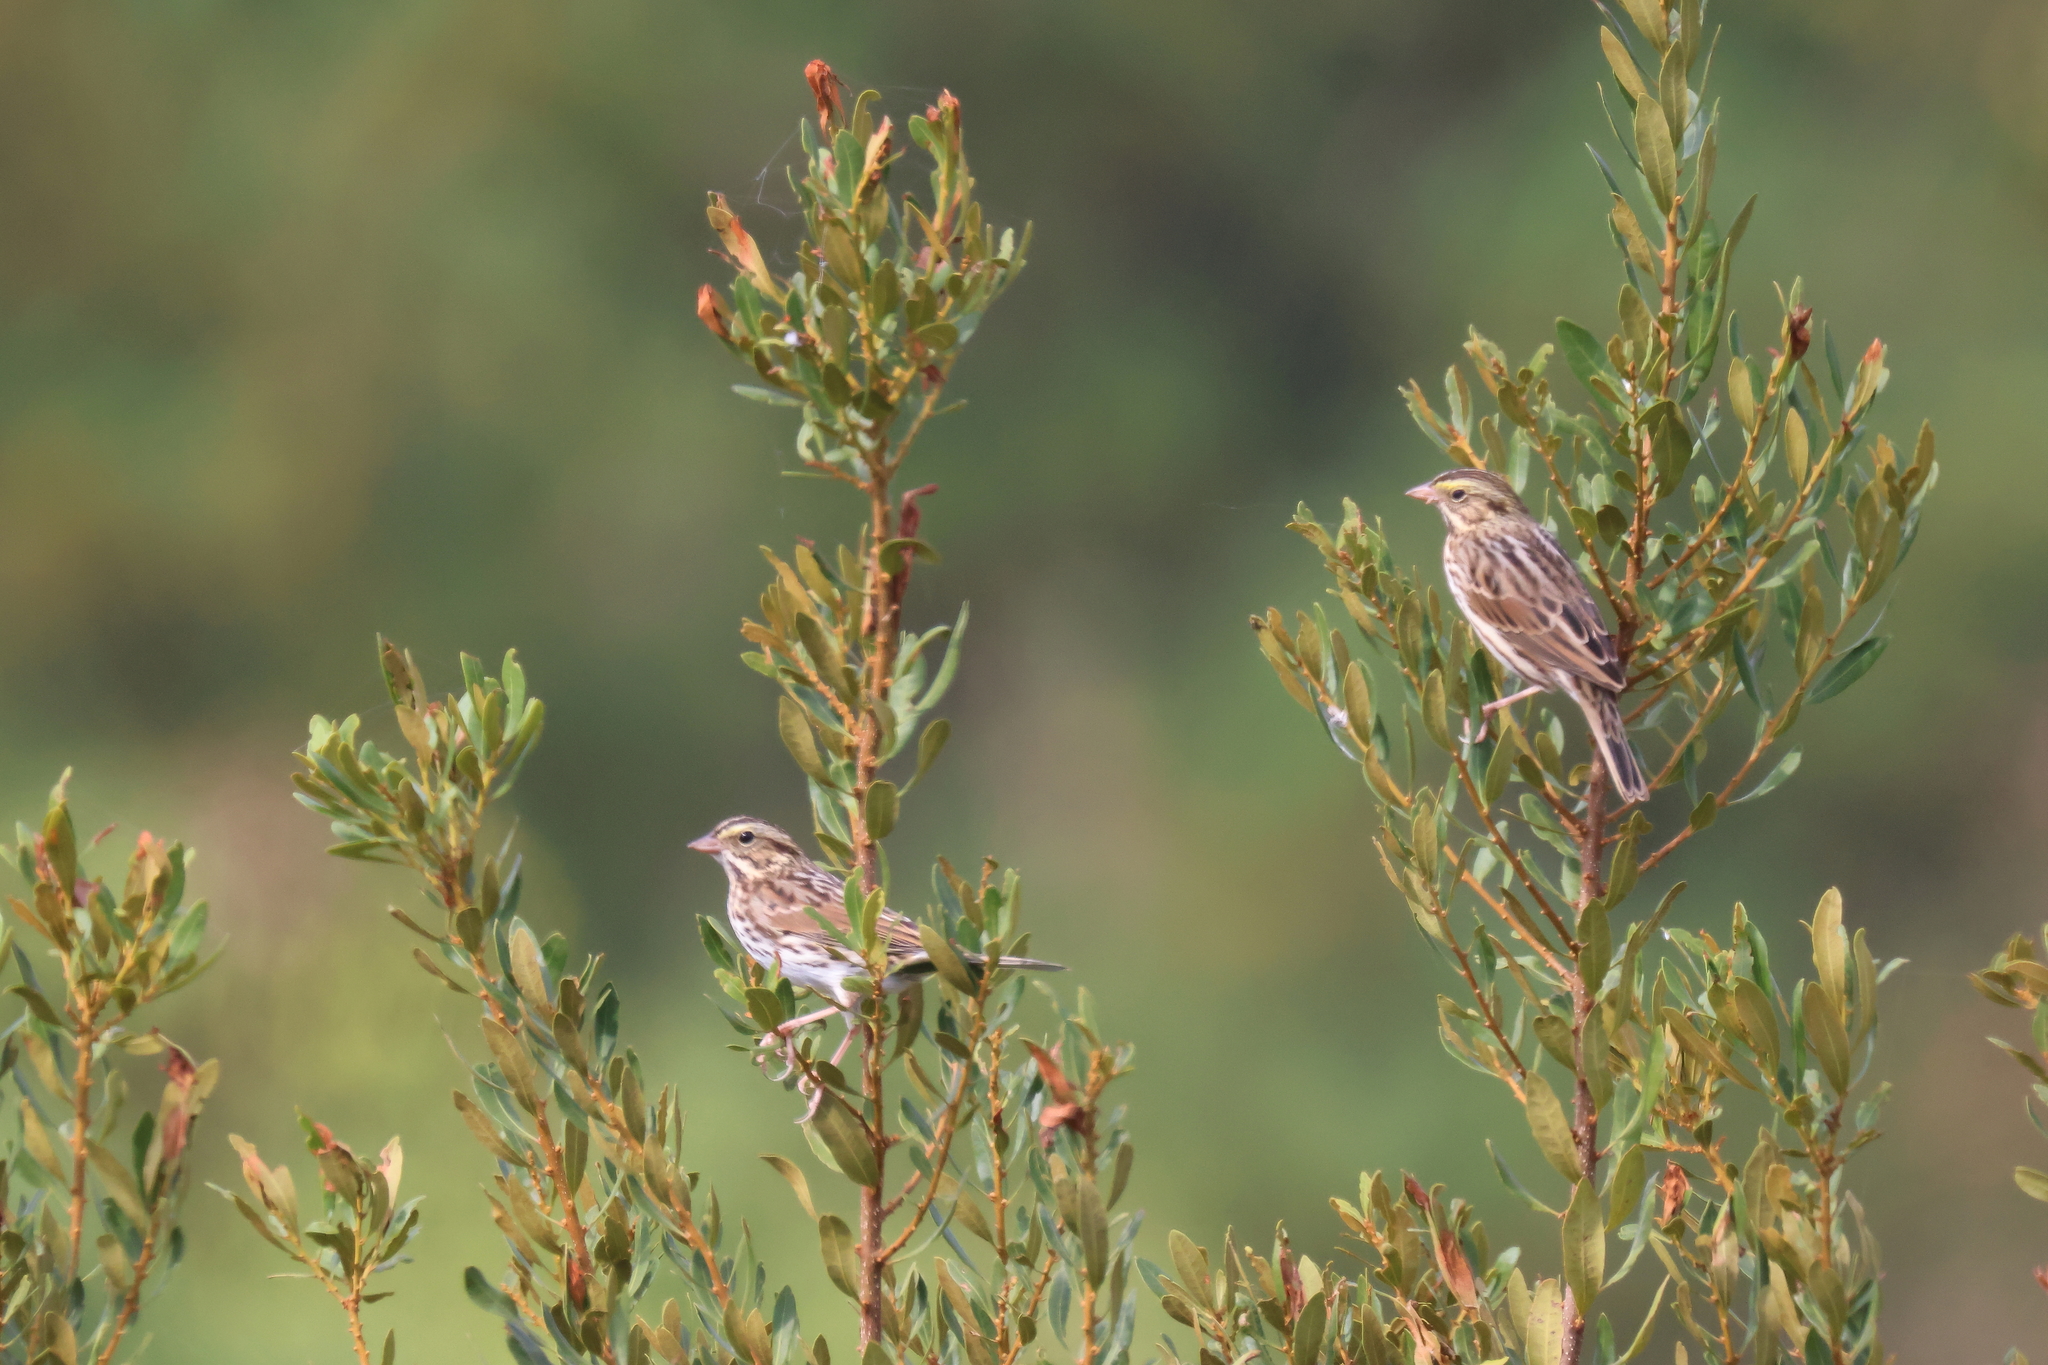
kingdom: Animalia
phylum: Chordata
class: Aves
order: Passeriformes
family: Passerellidae
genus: Passerculus
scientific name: Passerculus sandwichensis
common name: Savannah sparrow
